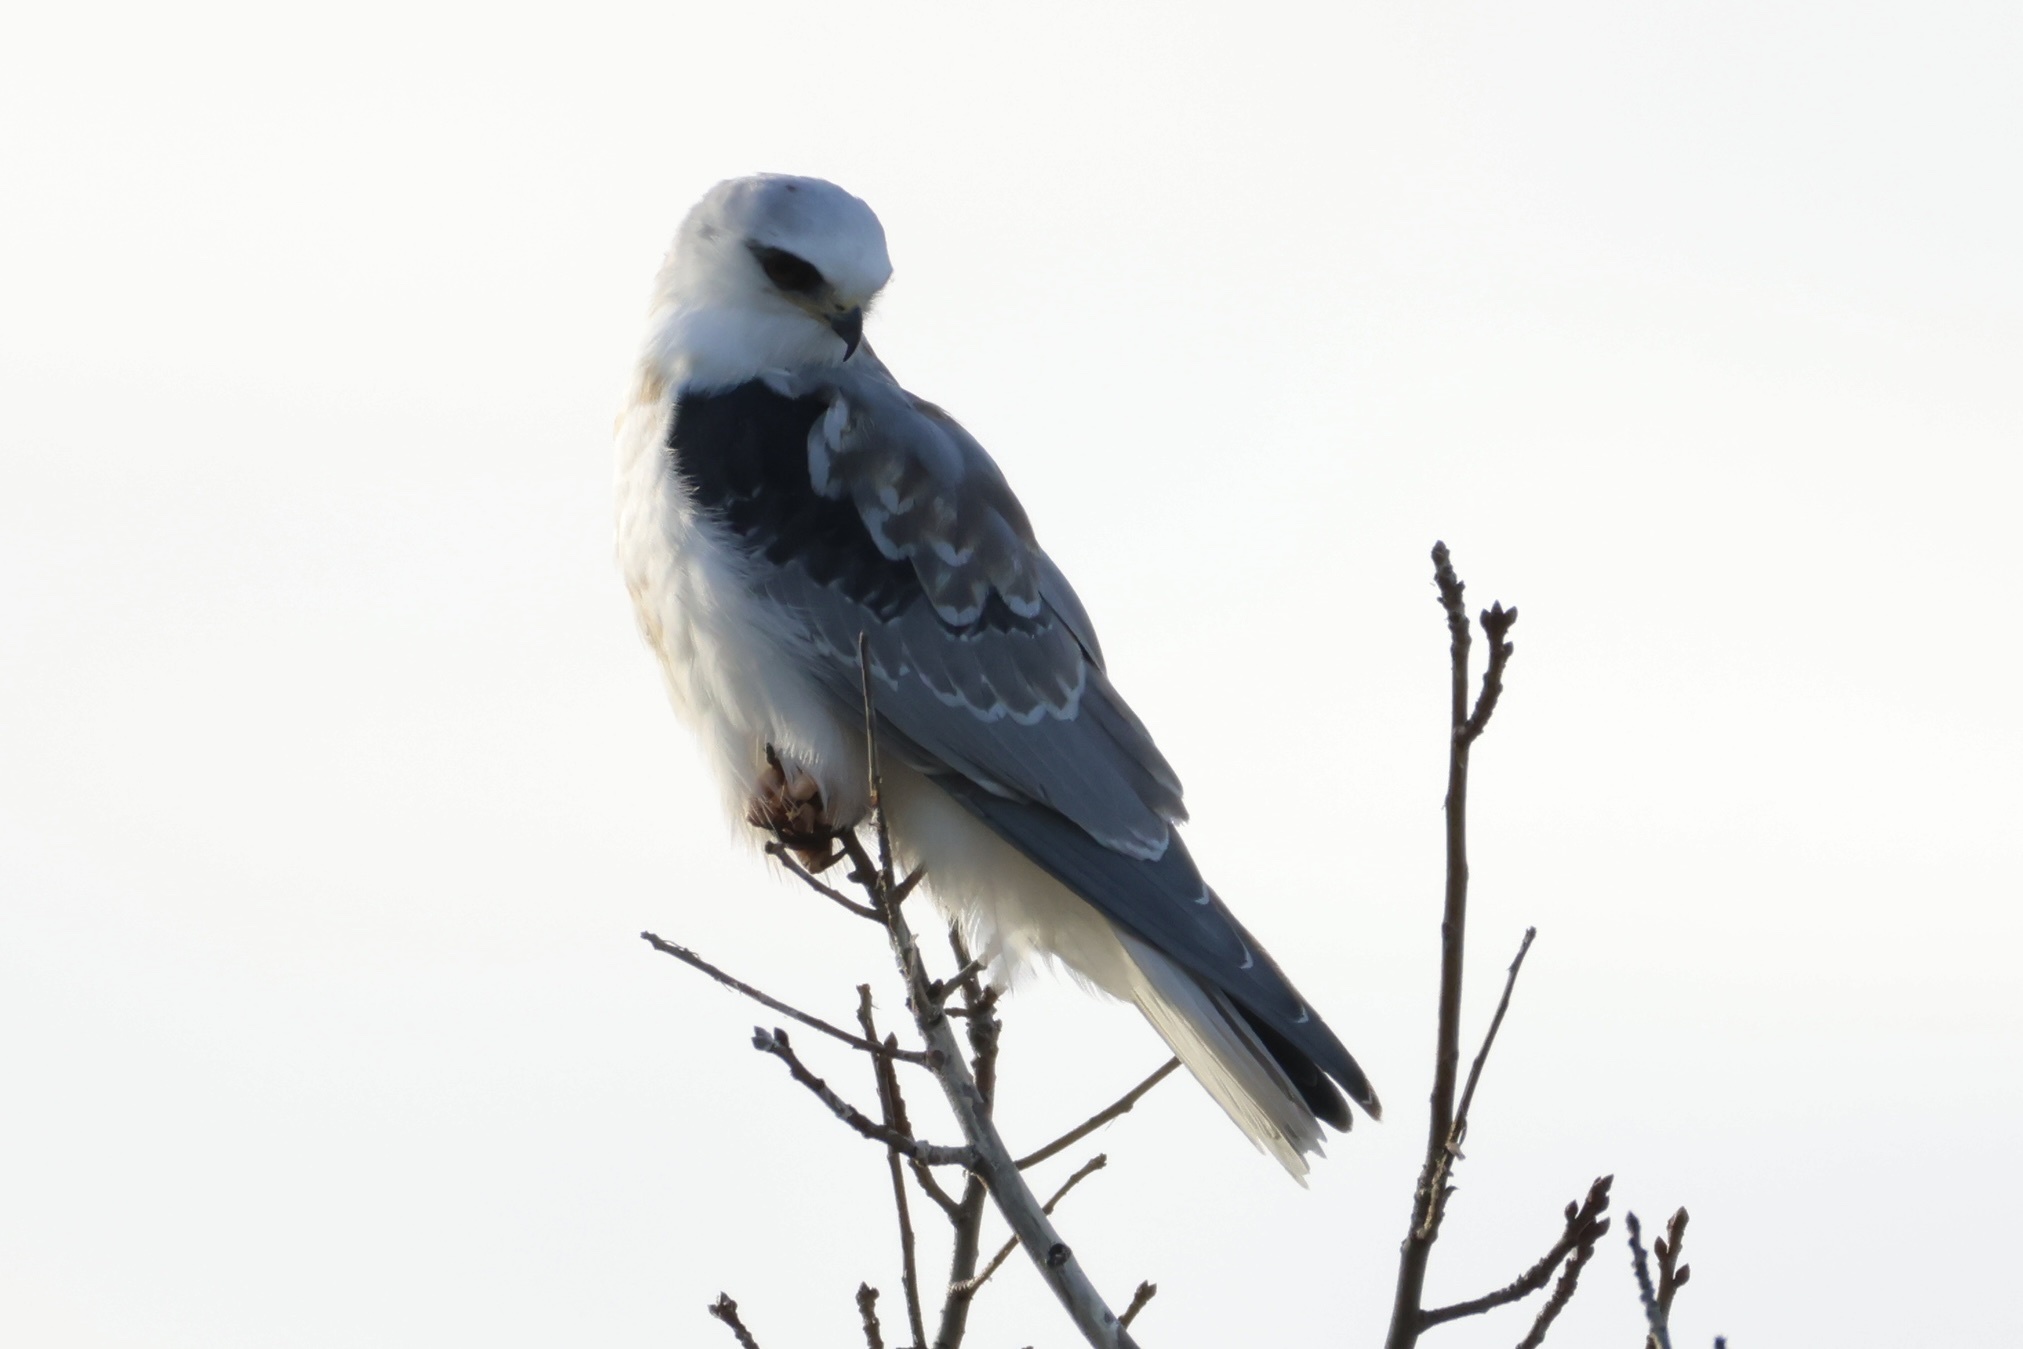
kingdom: Animalia
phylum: Chordata
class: Aves
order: Accipitriformes
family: Accipitridae
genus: Elanus
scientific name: Elanus leucurus
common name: White-tailed kite
